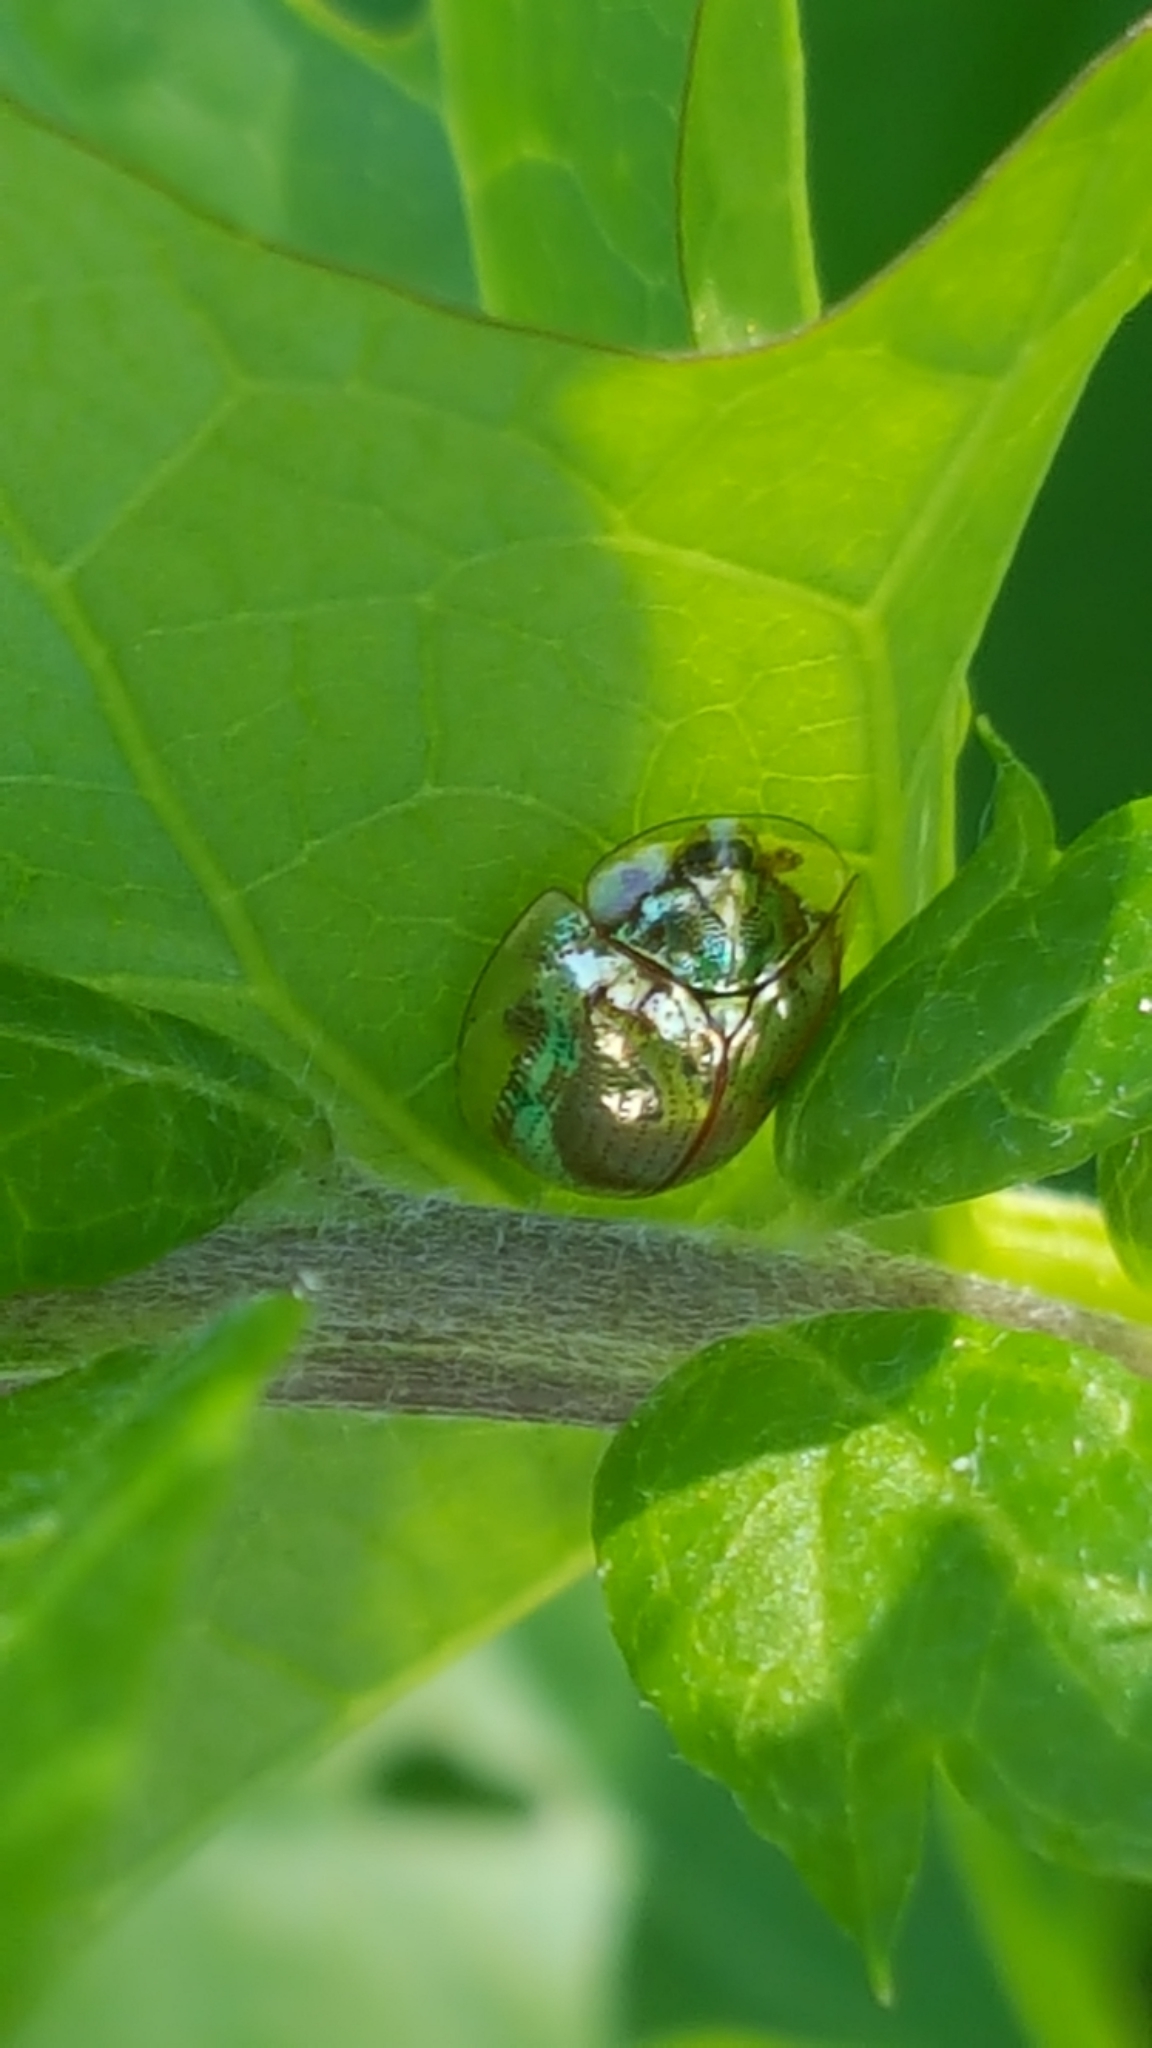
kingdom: Animalia
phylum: Arthropoda
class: Insecta
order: Coleoptera
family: Chrysomelidae
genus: Charidotella
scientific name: Charidotella sexpunctata
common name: Golden tortoise beetle
